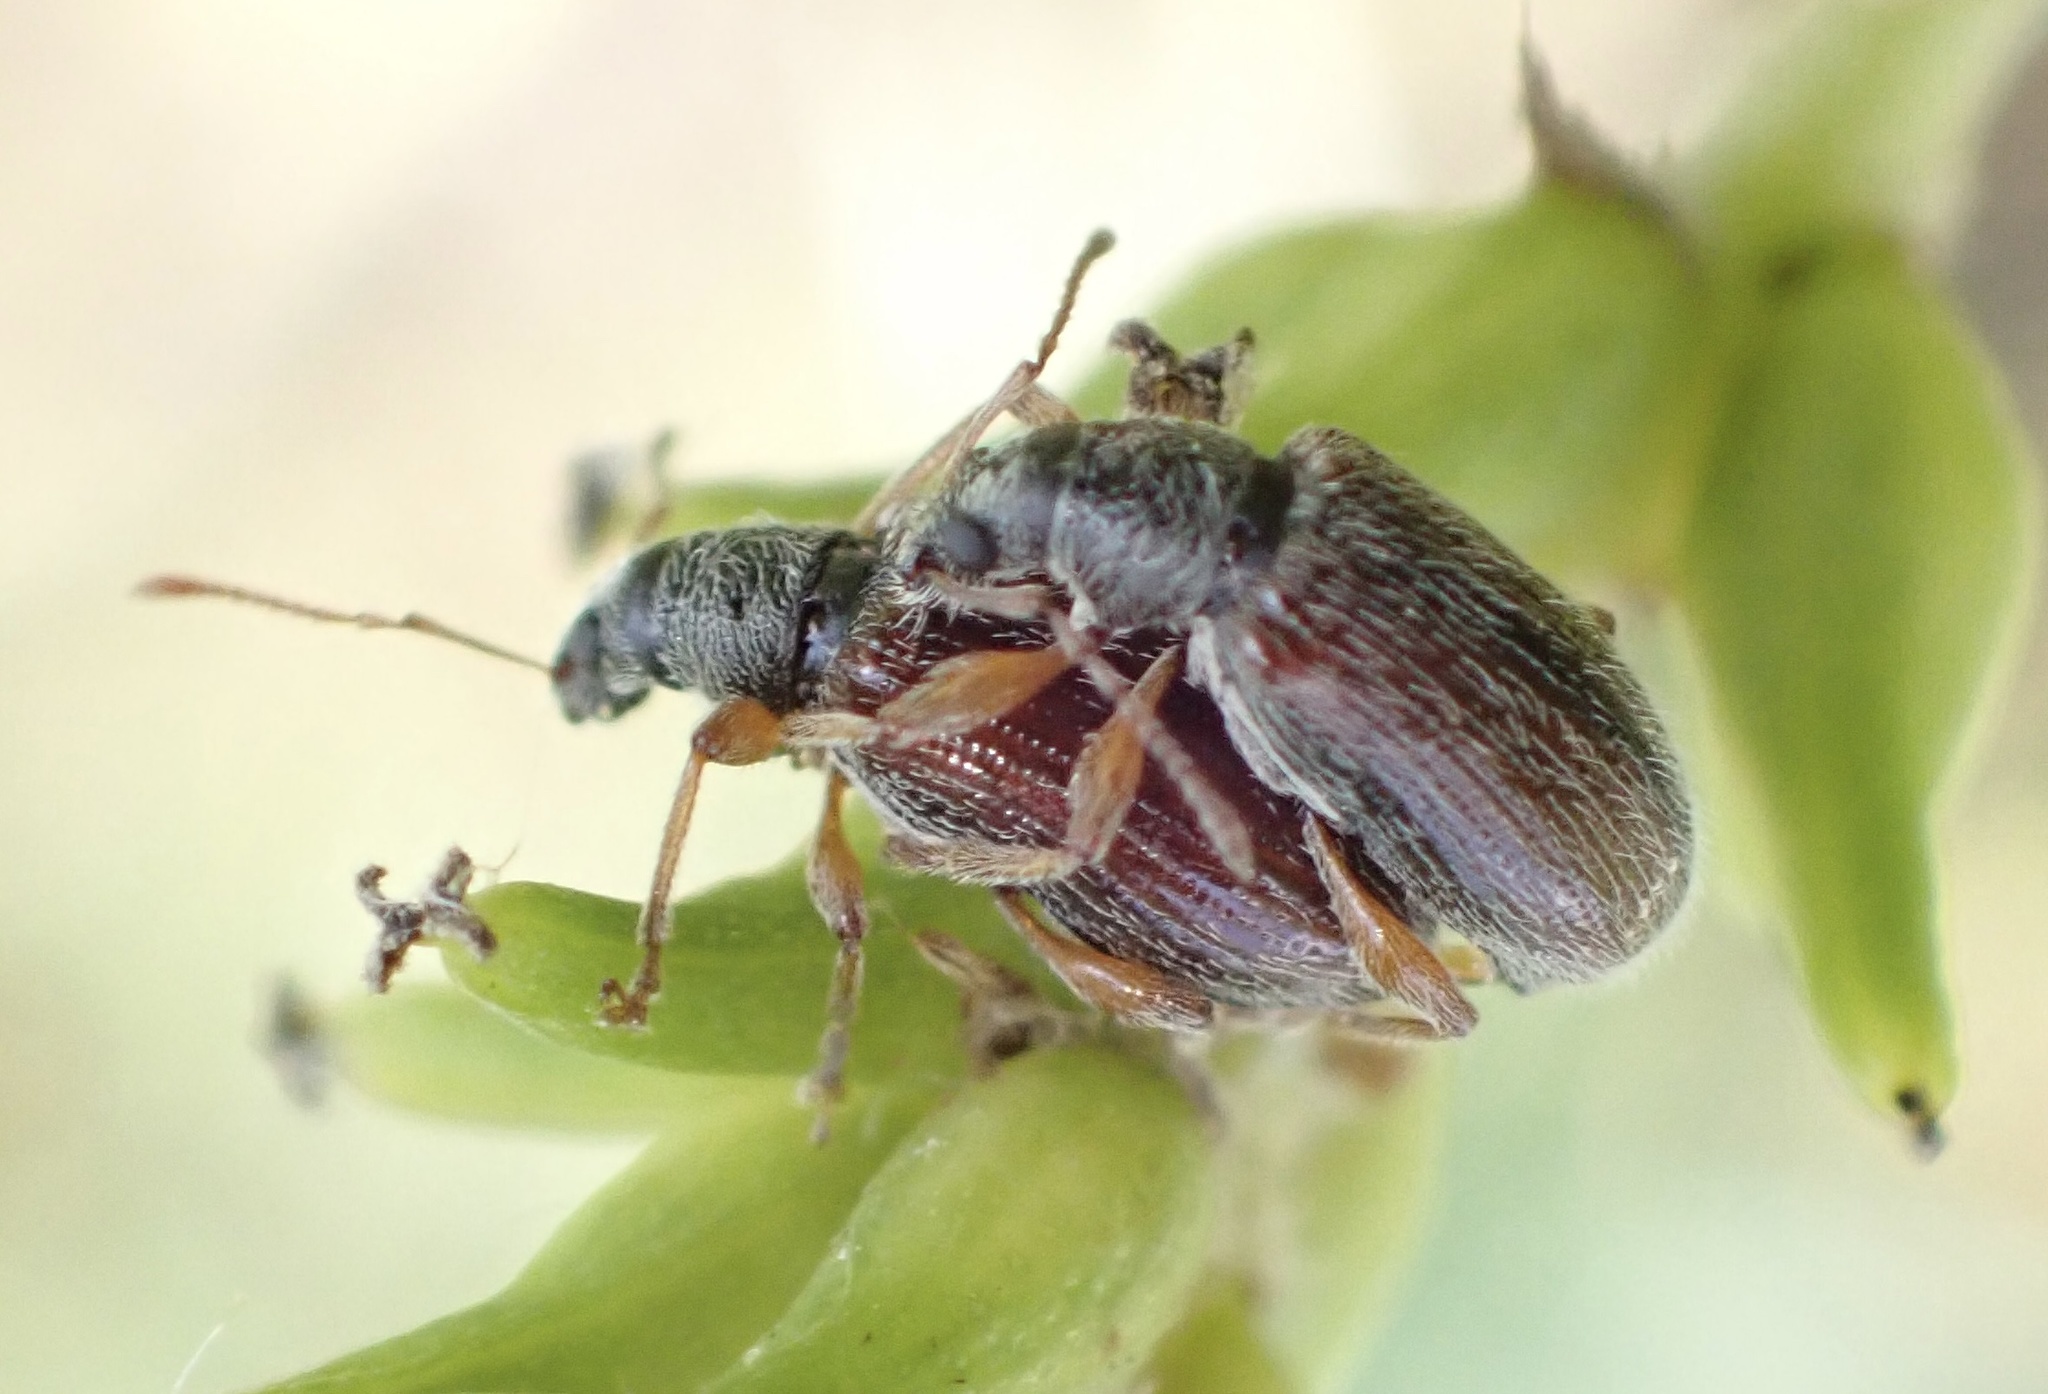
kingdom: Animalia
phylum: Arthropoda
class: Insecta
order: Coleoptera
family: Curculionidae
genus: Phyllobius
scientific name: Phyllobius oblongus
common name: Brown leaf weevil
